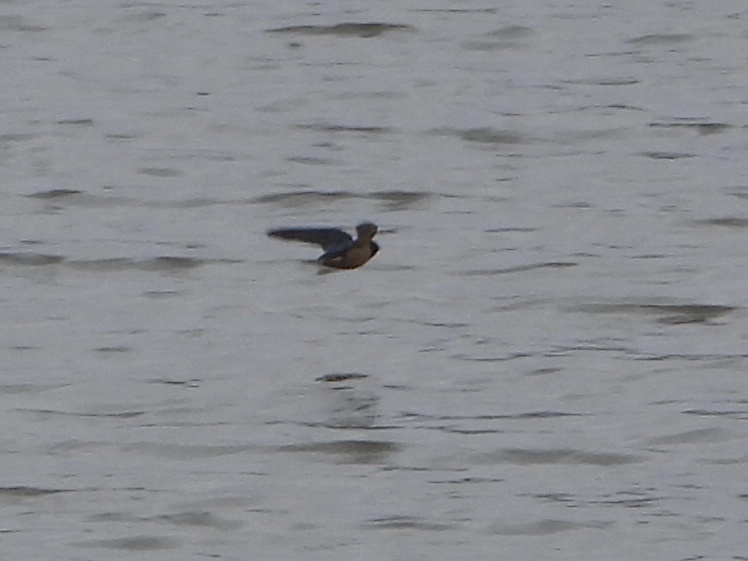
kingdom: Animalia
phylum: Chordata
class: Aves
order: Passeriformes
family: Hirundinidae
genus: Hirundo
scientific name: Hirundo rustica
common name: Barn swallow
